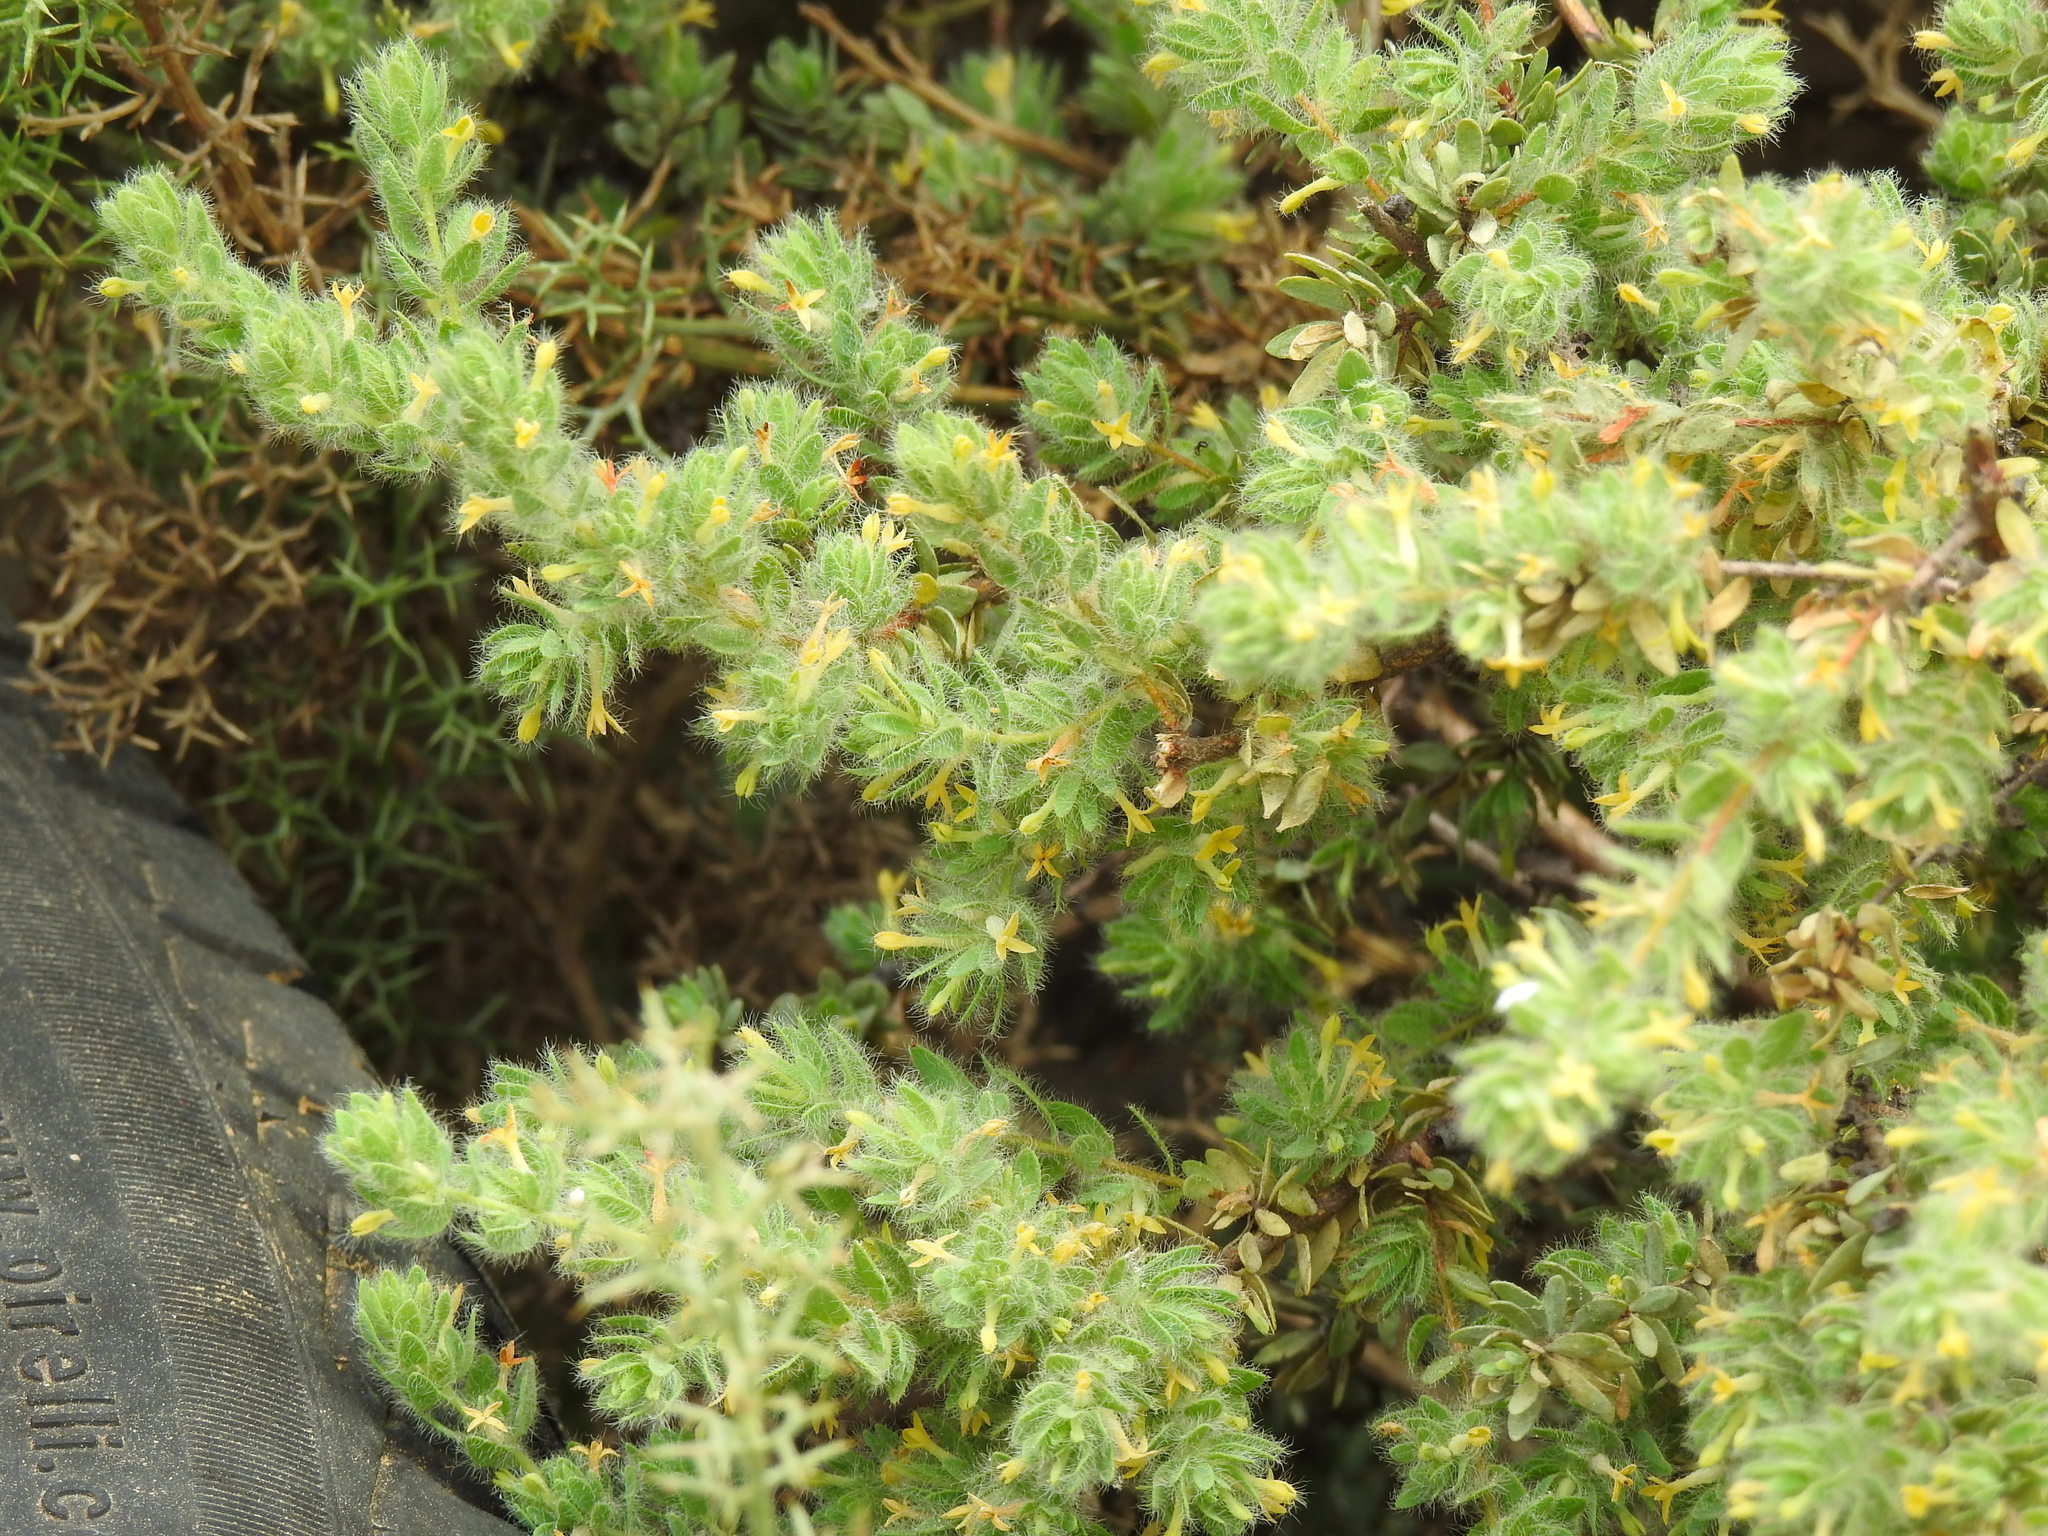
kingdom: Plantae
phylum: Tracheophyta
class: Magnoliopsida
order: Malvales
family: Thymelaeaceae
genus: Thymelaea
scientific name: Thymelaea villosa
